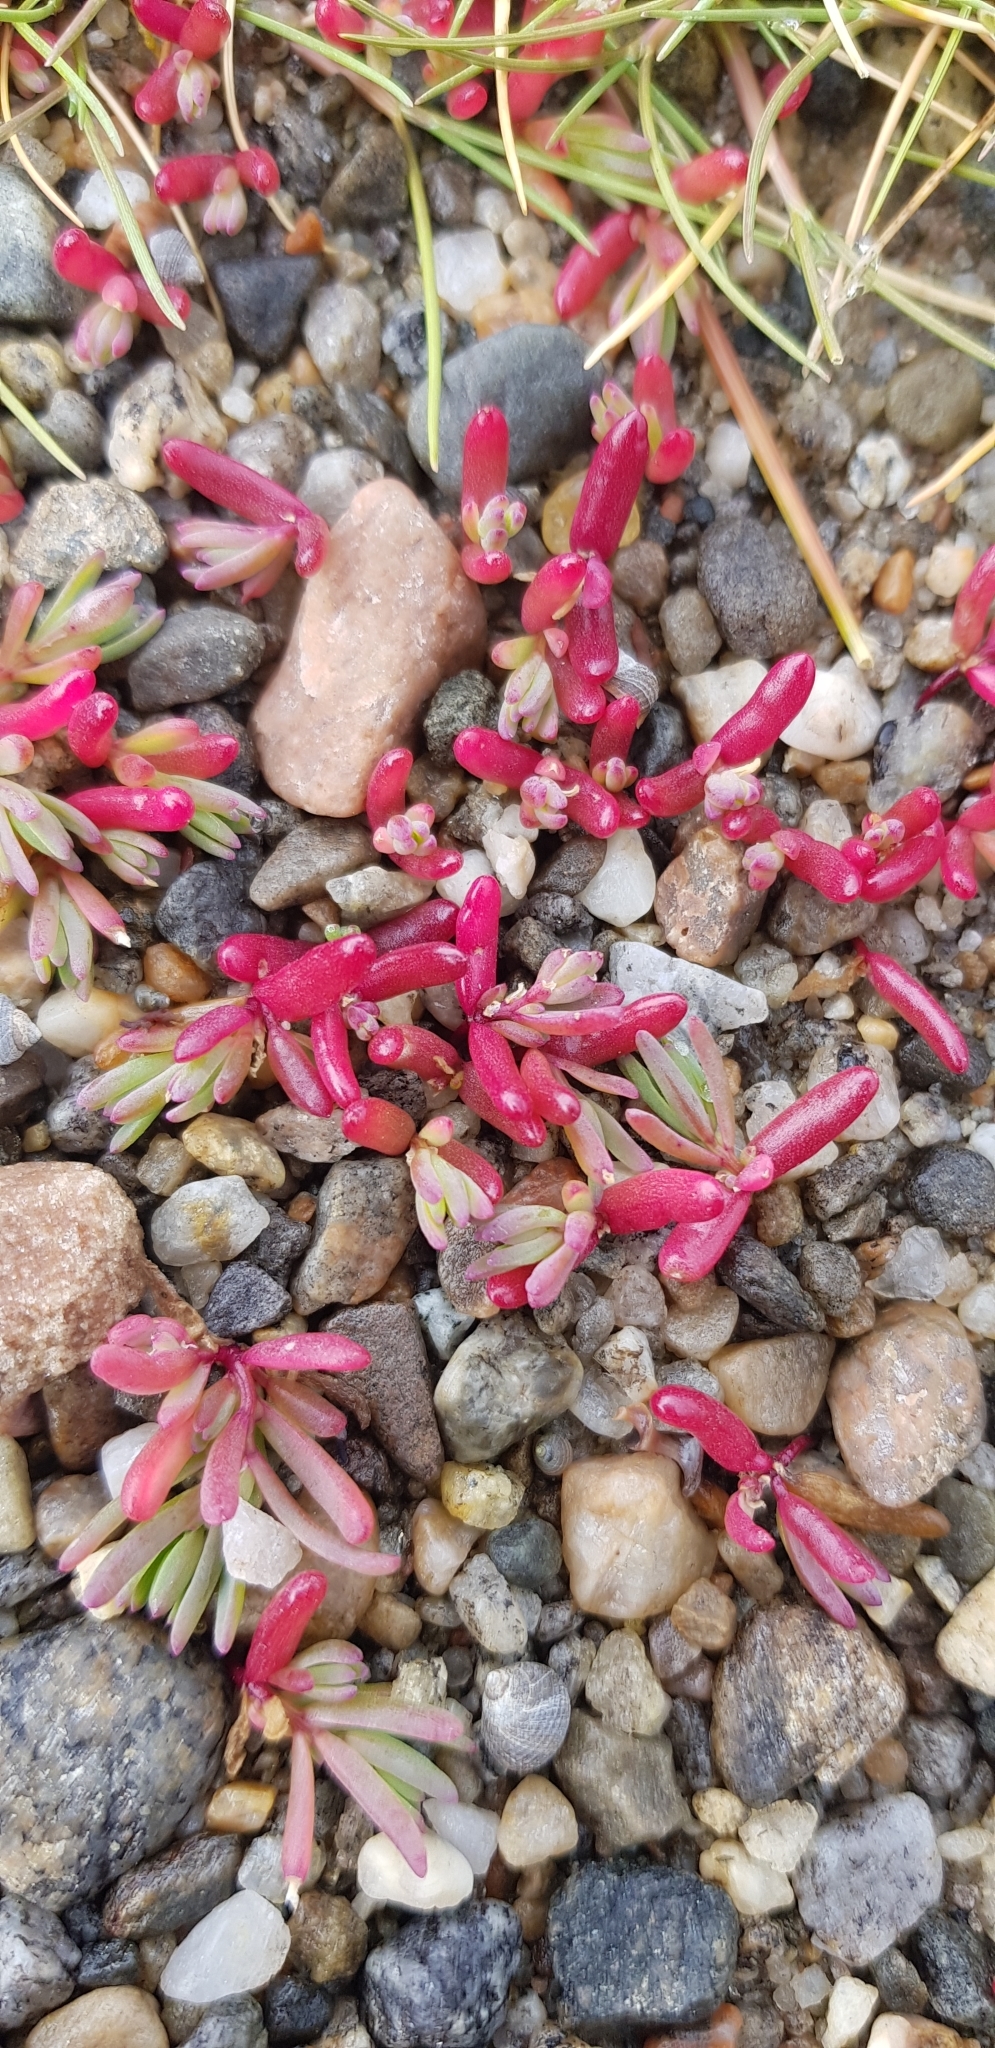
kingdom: Plantae
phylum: Tracheophyta
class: Magnoliopsida
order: Caryophyllales
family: Amaranthaceae
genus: Salicornia
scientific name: Salicornia europaea
